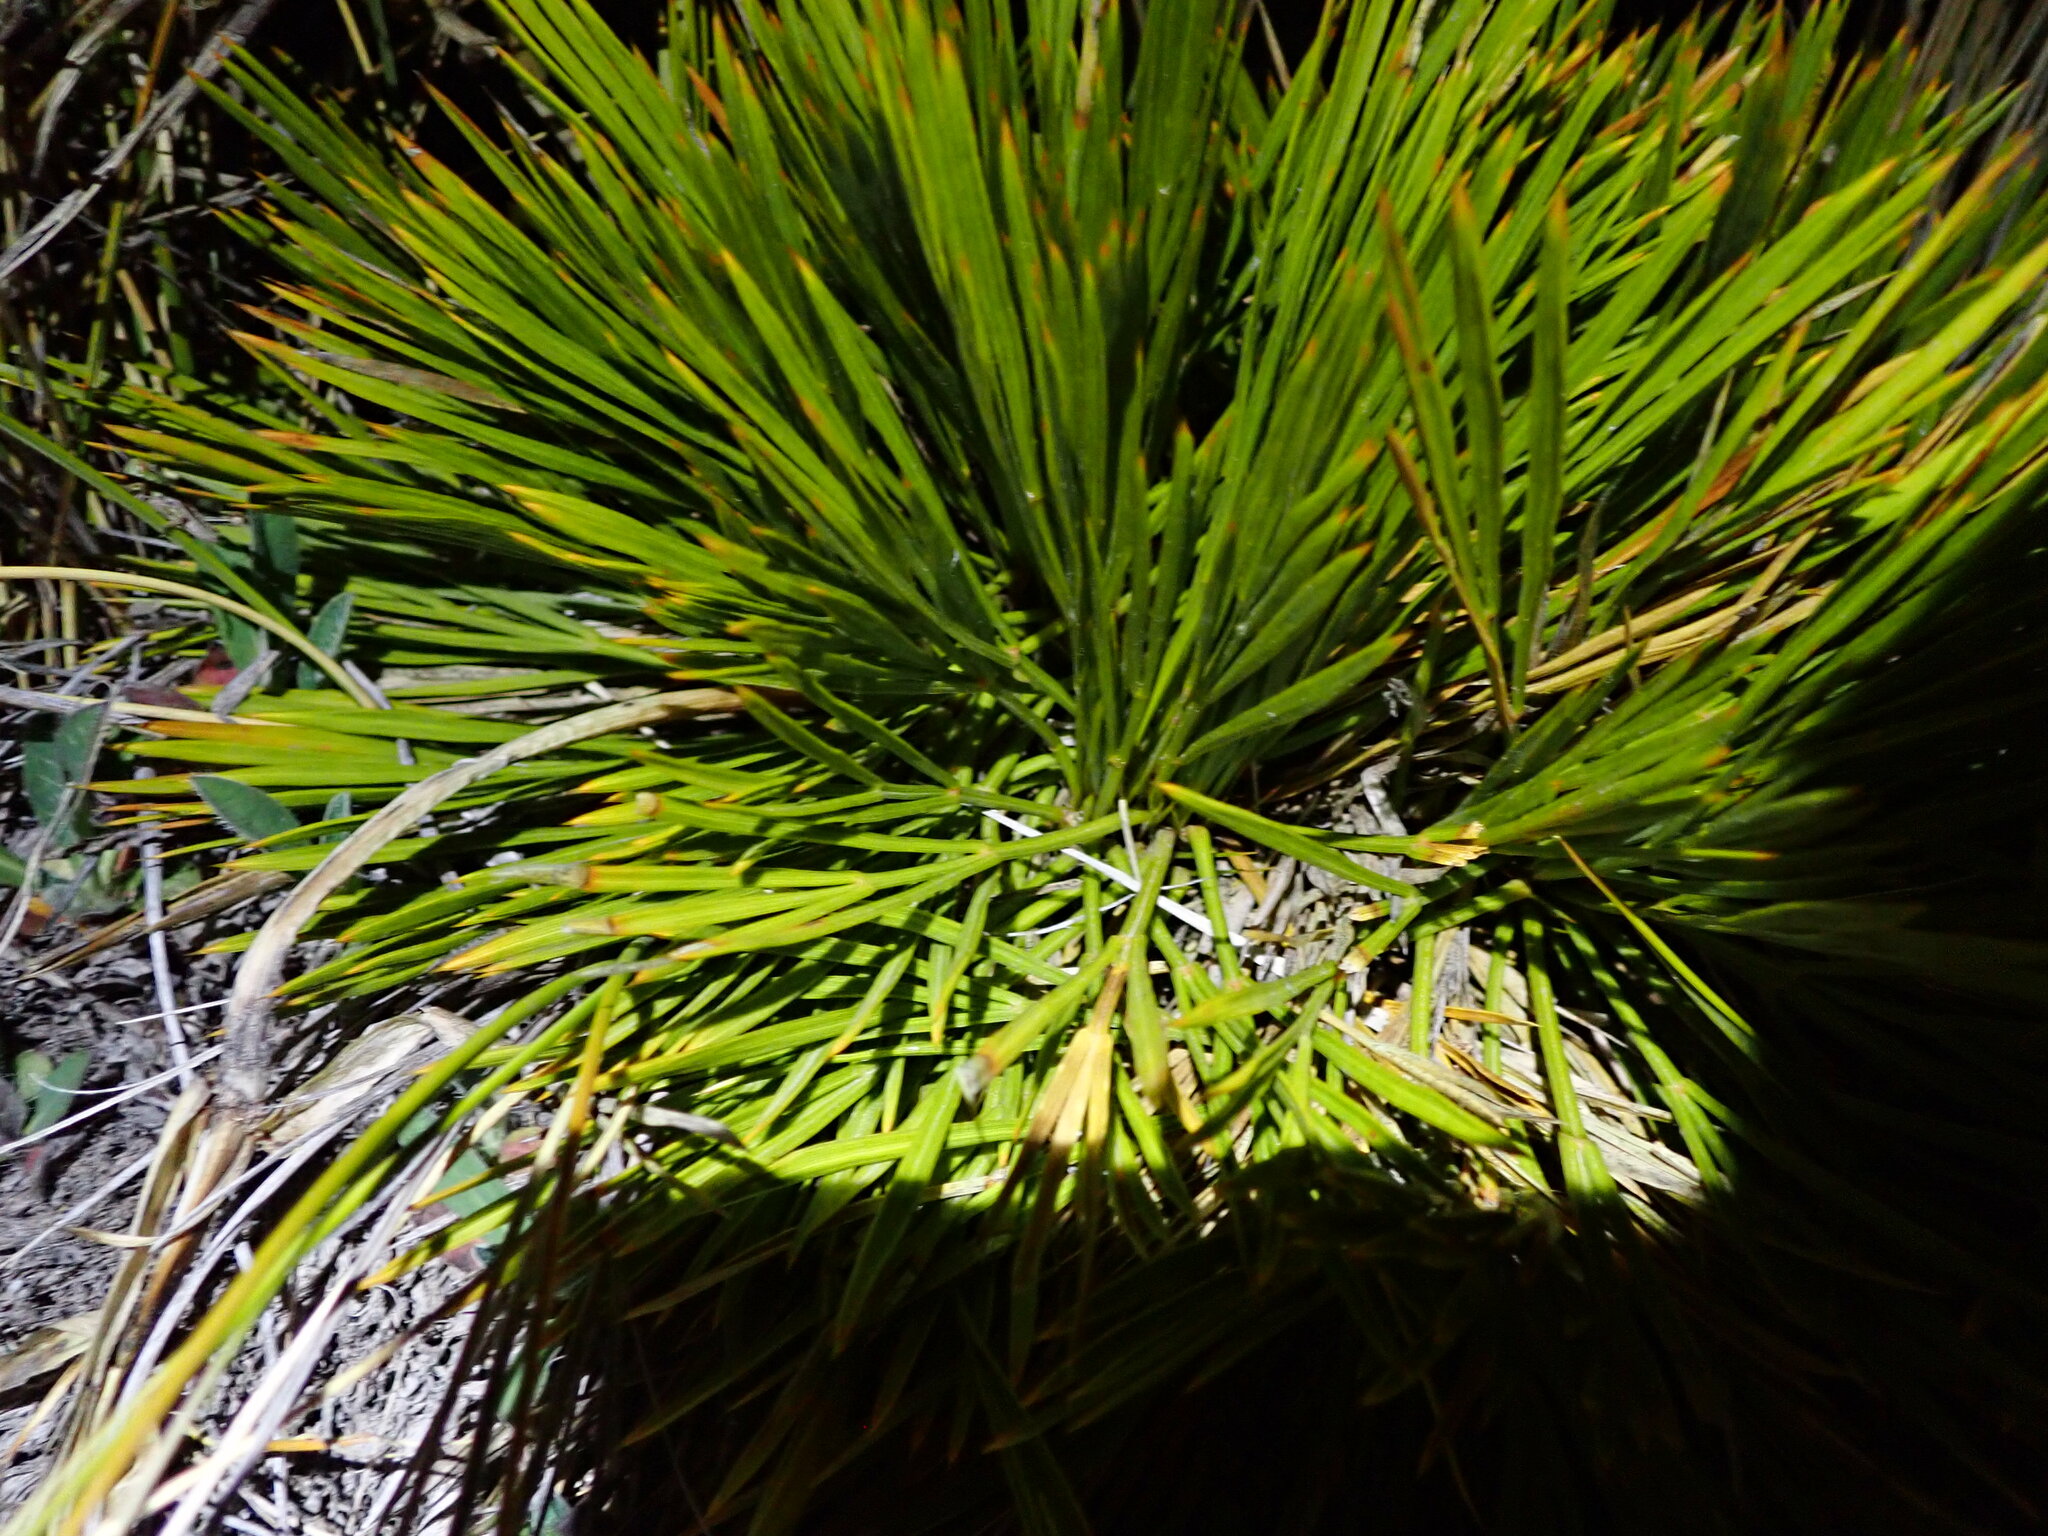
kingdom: Plantae
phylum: Tracheophyta
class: Magnoliopsida
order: Apiales
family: Apiaceae
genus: Aciphylla
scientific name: Aciphylla montana
